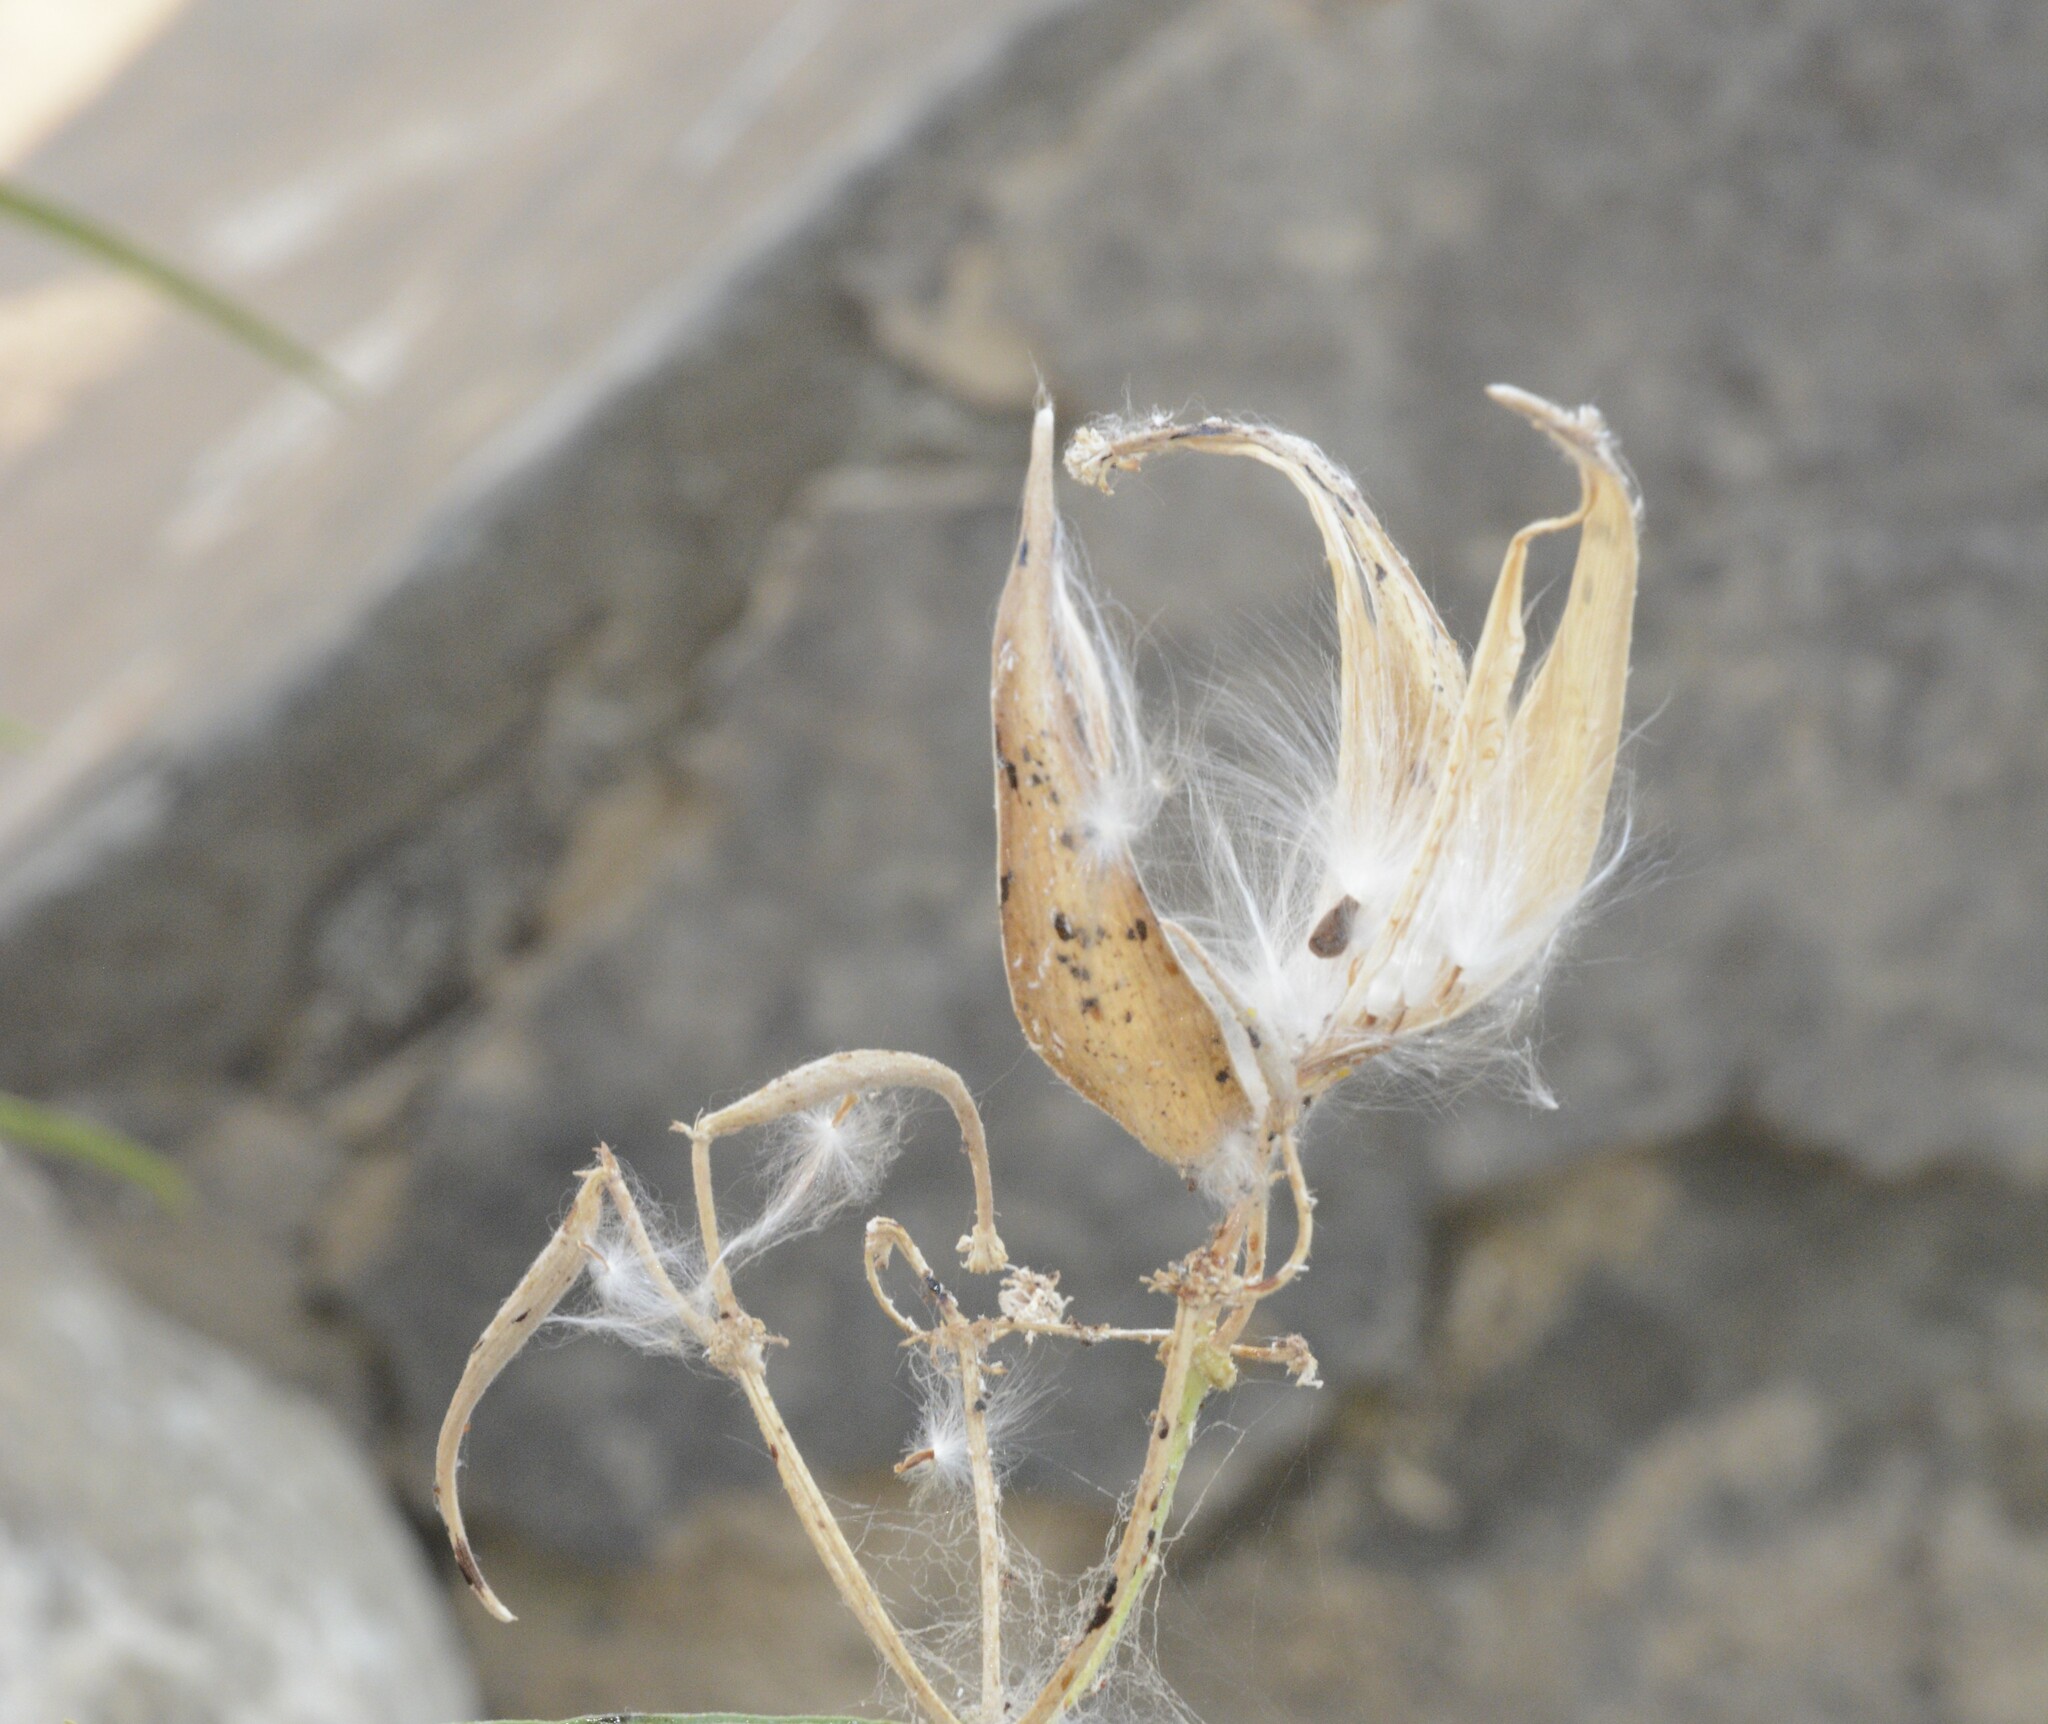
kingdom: Plantae
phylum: Tracheophyta
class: Magnoliopsida
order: Gentianales
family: Apocynaceae
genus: Asclepias
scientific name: Asclepias fascicularis
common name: Mexican milkweed
